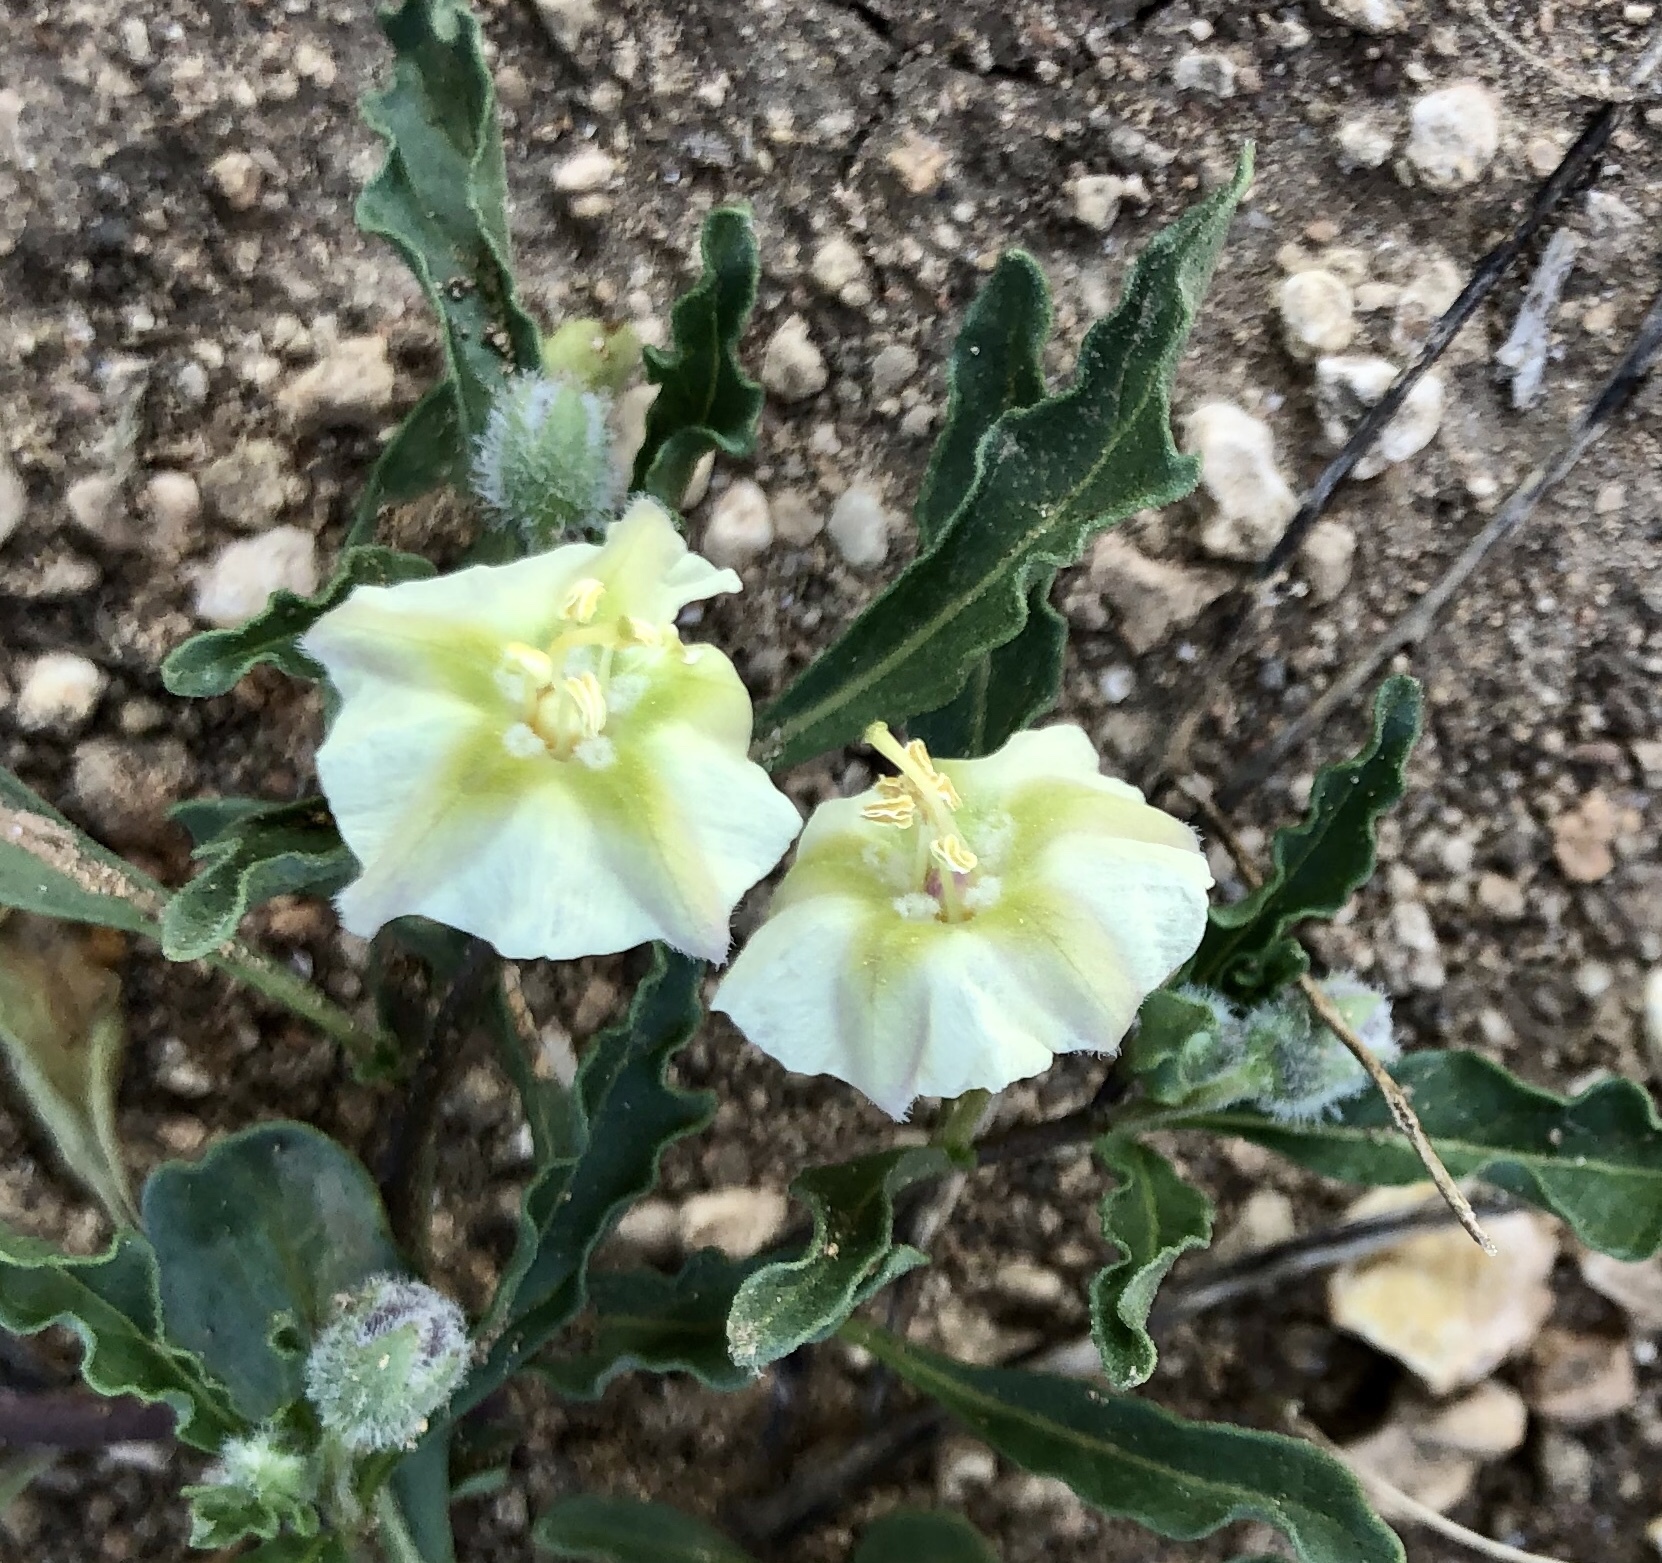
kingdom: Plantae
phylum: Tracheophyta
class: Magnoliopsida
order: Solanales
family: Solanaceae
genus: Chamaesaracha
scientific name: Chamaesaracha edwardsiana
